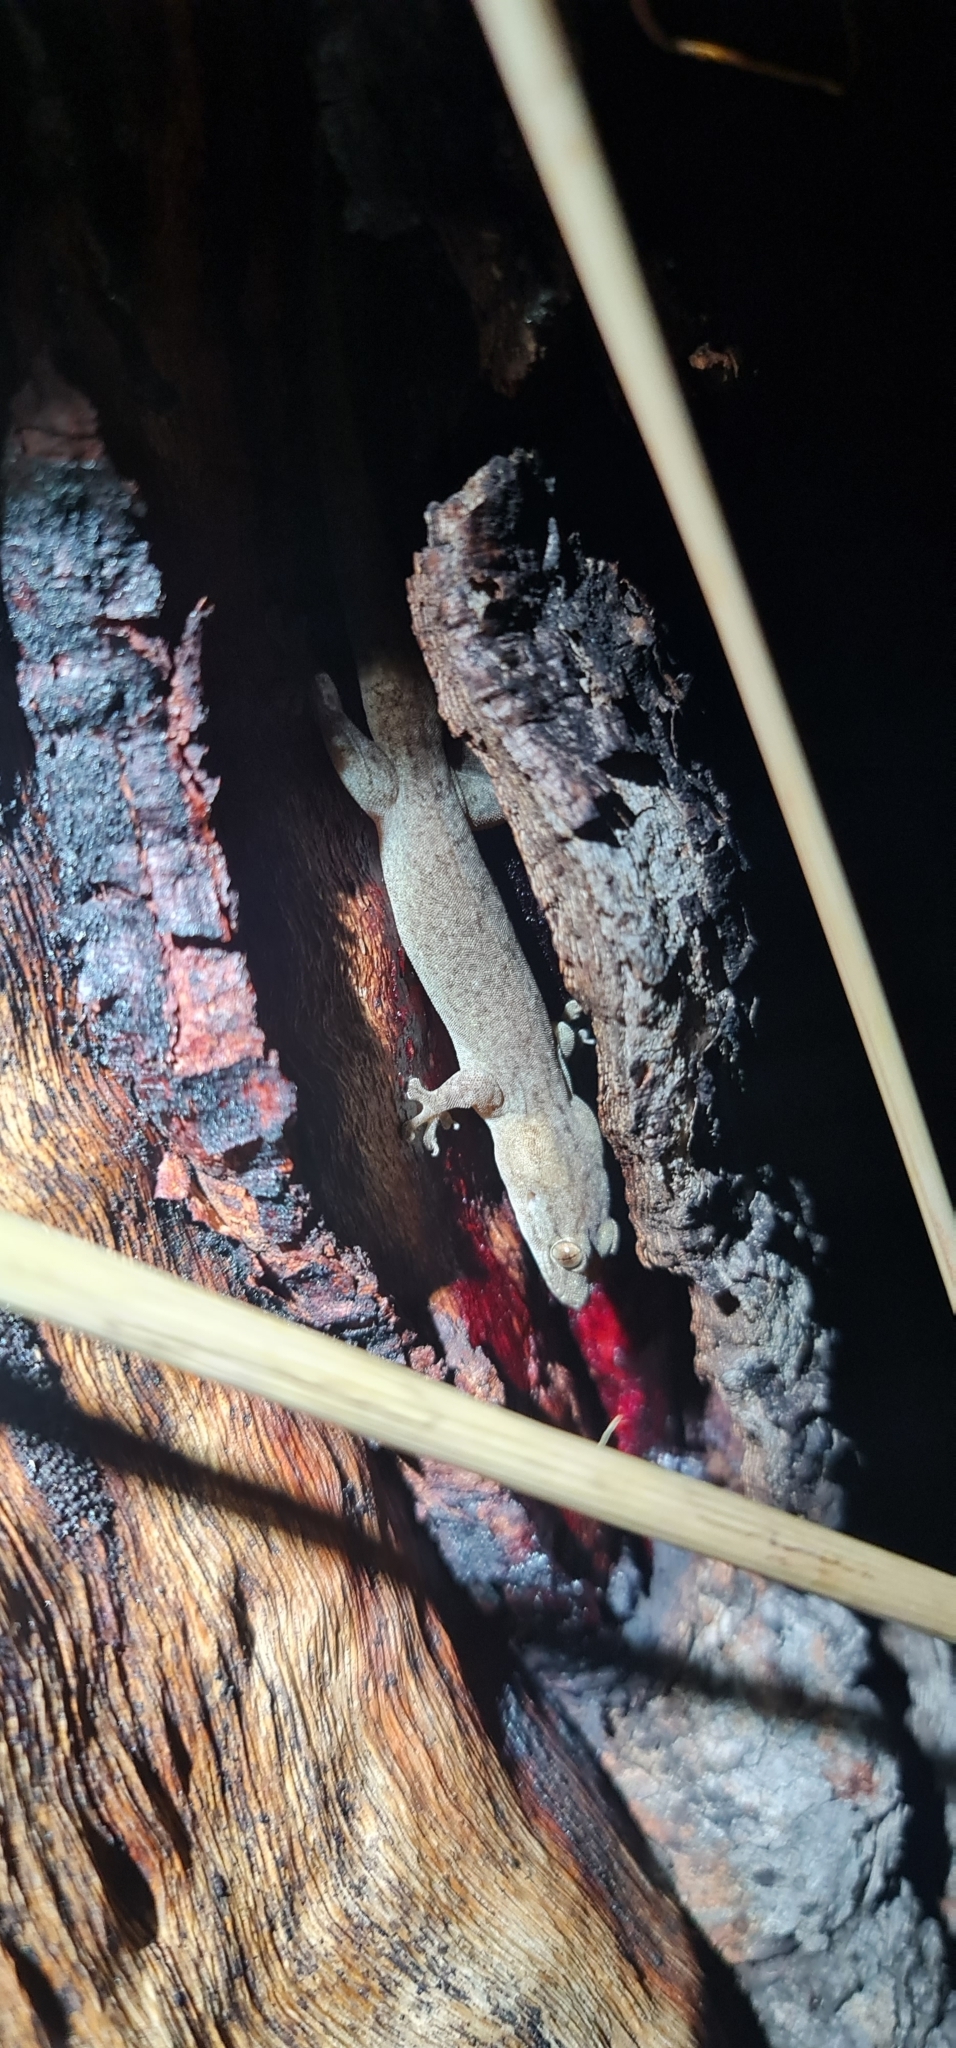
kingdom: Animalia
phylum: Chordata
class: Squamata
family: Gekkonidae
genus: Gehyra
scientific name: Gehyra australis
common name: House gecko
